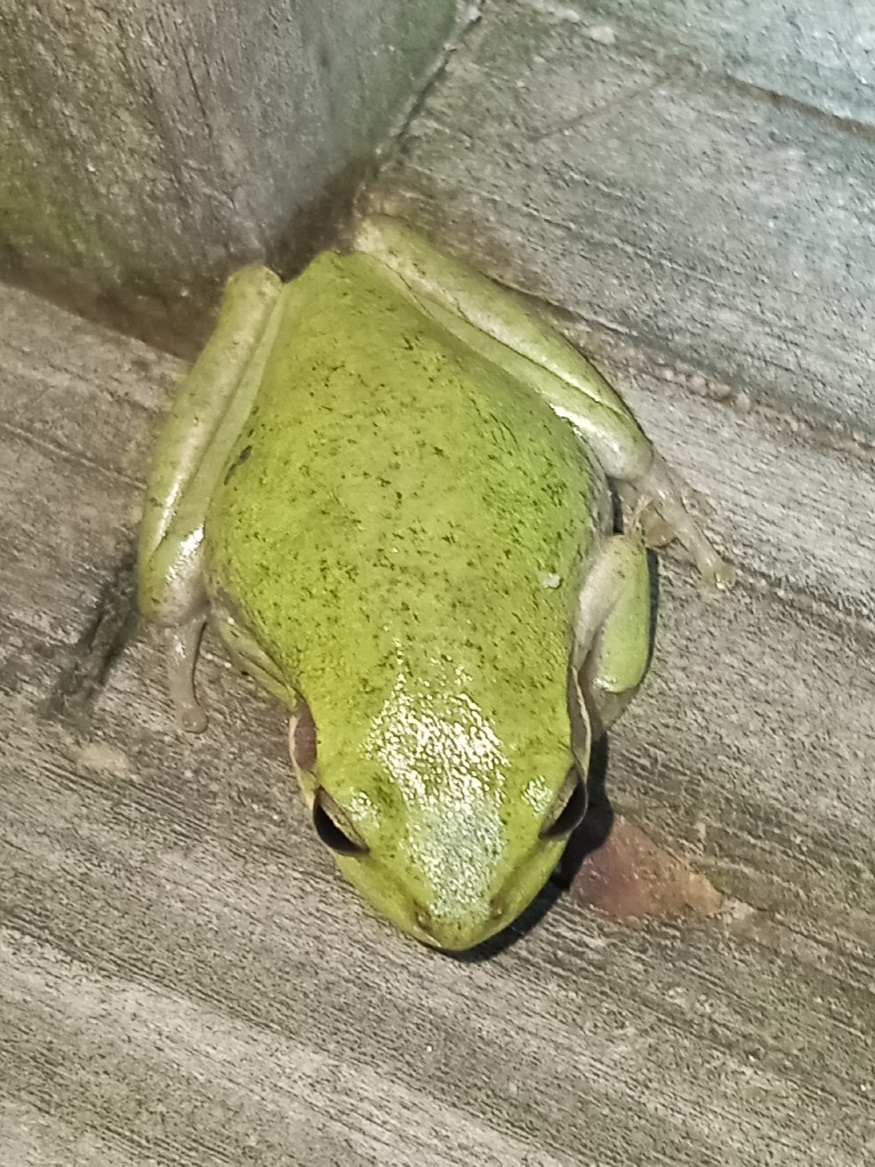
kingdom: Animalia
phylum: Chordata
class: Amphibia
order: Anura
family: Hylidae
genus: Dryophytes
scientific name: Dryophytes squirellus
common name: Squirrel treefrog
